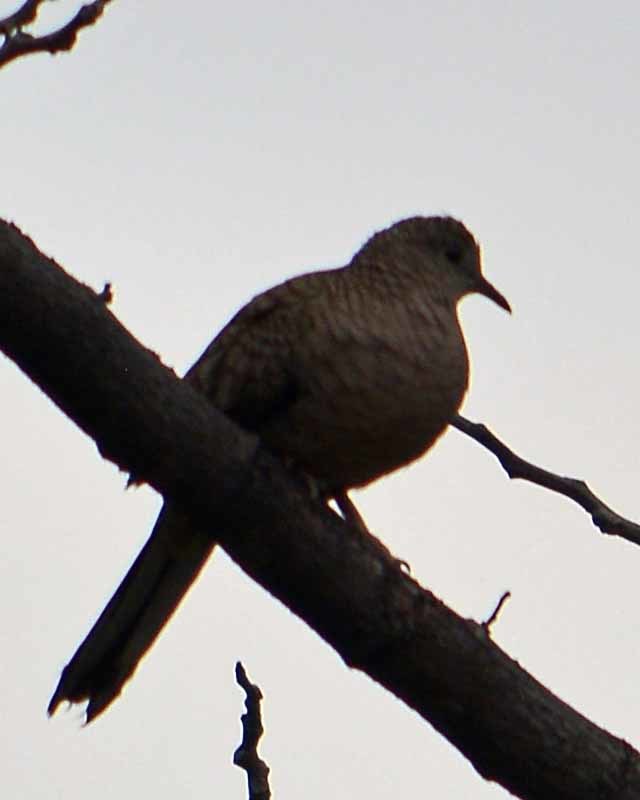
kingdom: Animalia
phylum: Chordata
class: Aves
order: Columbiformes
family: Columbidae
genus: Columbina
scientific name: Columbina inca
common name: Inca dove
